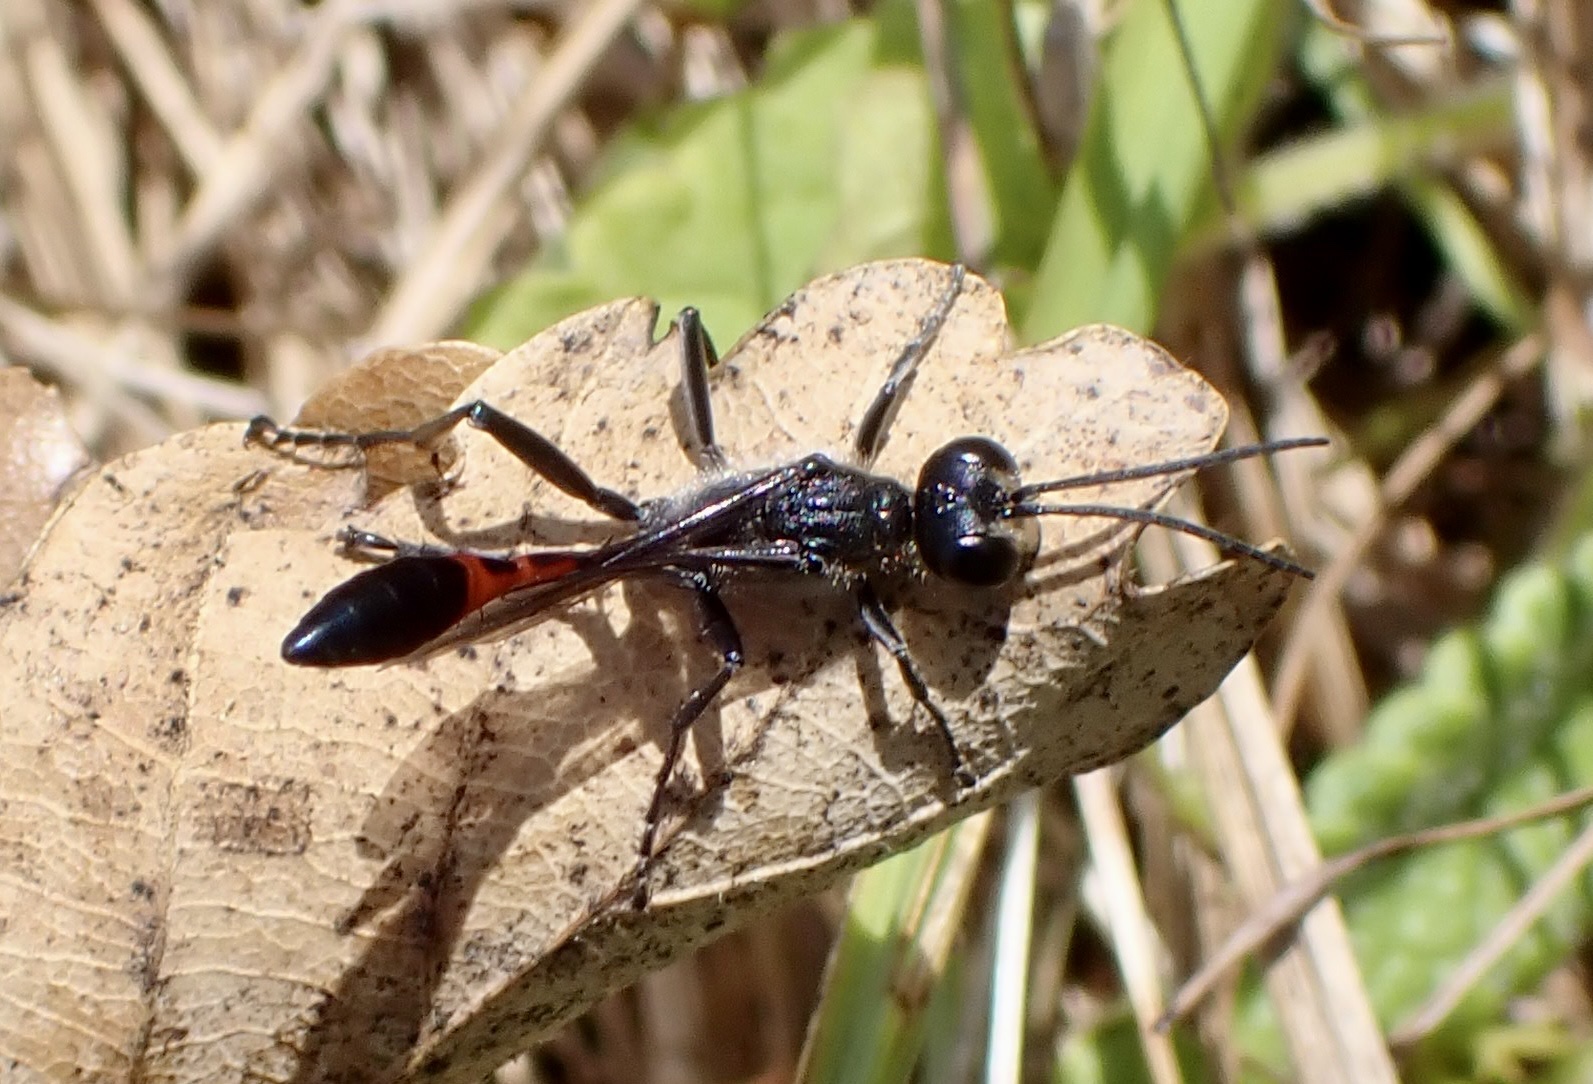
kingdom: Animalia
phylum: Arthropoda
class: Insecta
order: Hymenoptera
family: Sphecidae
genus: Ammophila
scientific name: Ammophila sabulosa
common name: Red banded sand wasp
